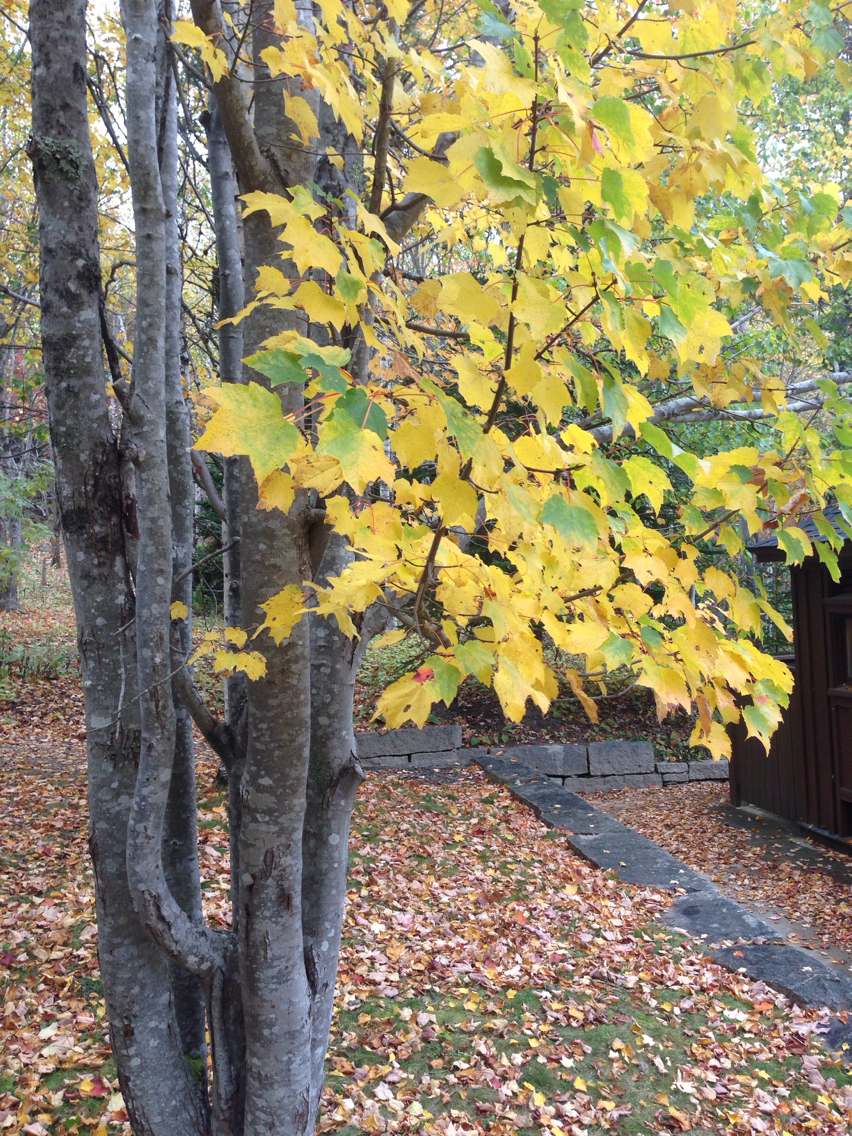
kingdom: Plantae
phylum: Tracheophyta
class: Magnoliopsida
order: Sapindales
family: Sapindaceae
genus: Acer
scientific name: Acer rubrum
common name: Red maple
